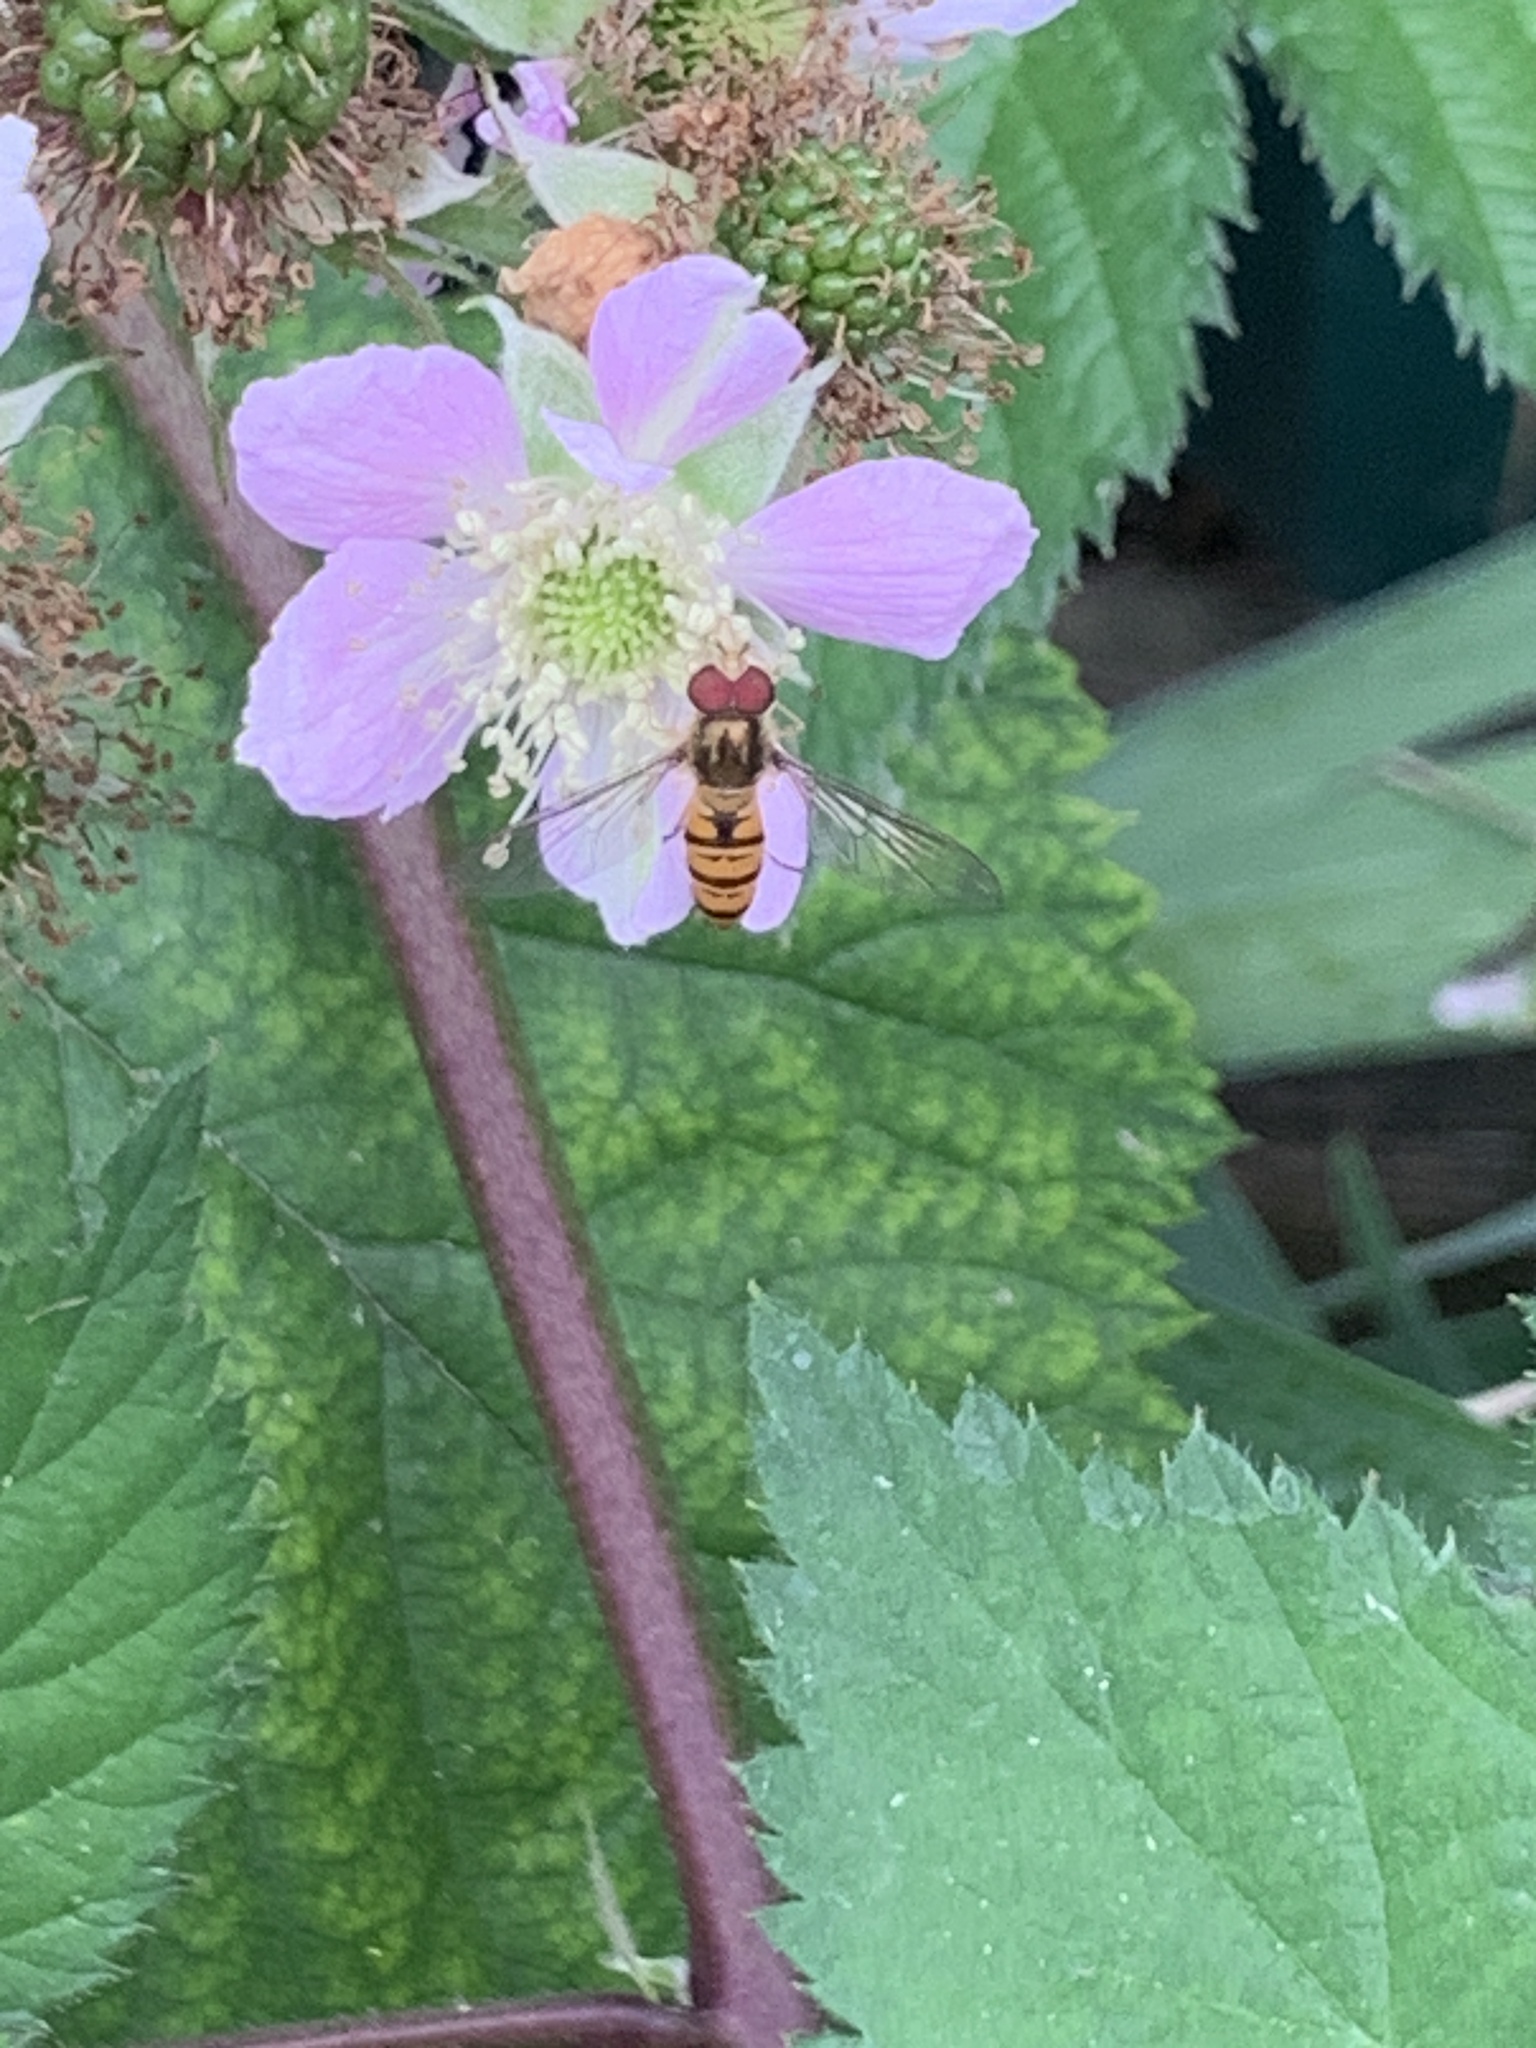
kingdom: Animalia
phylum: Arthropoda
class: Insecta
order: Diptera
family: Syrphidae
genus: Episyrphus
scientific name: Episyrphus balteatus
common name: Marmalade hoverfly
